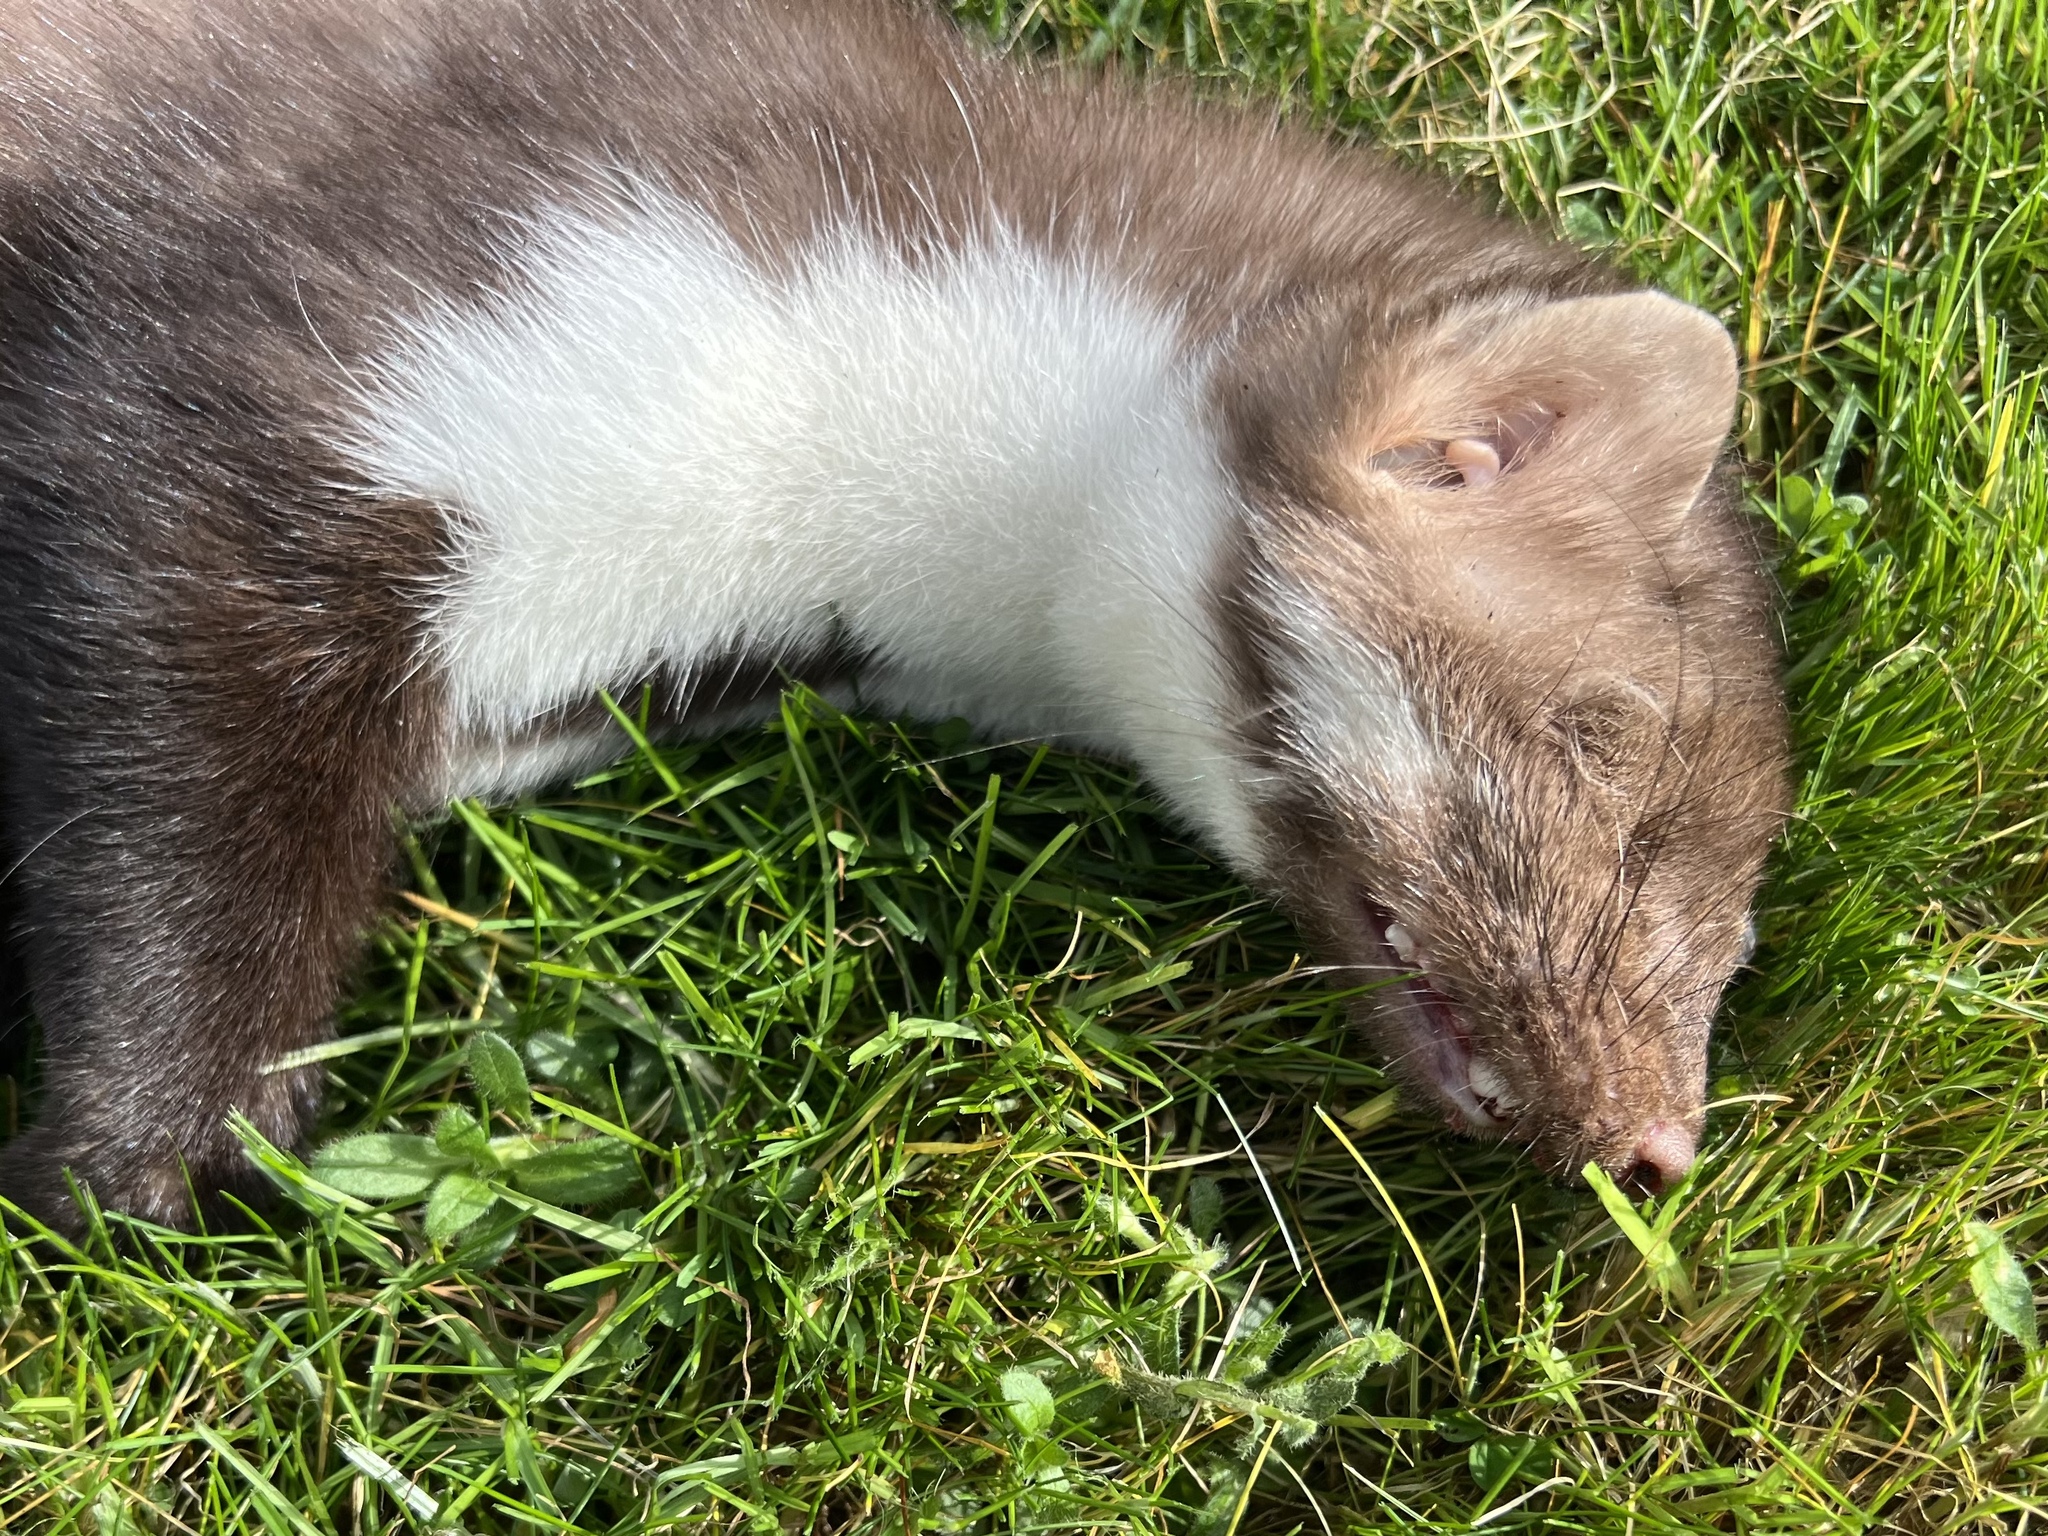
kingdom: Animalia
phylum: Chordata
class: Mammalia
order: Carnivora
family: Mustelidae
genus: Martes
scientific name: Martes foina
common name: Beech marten
